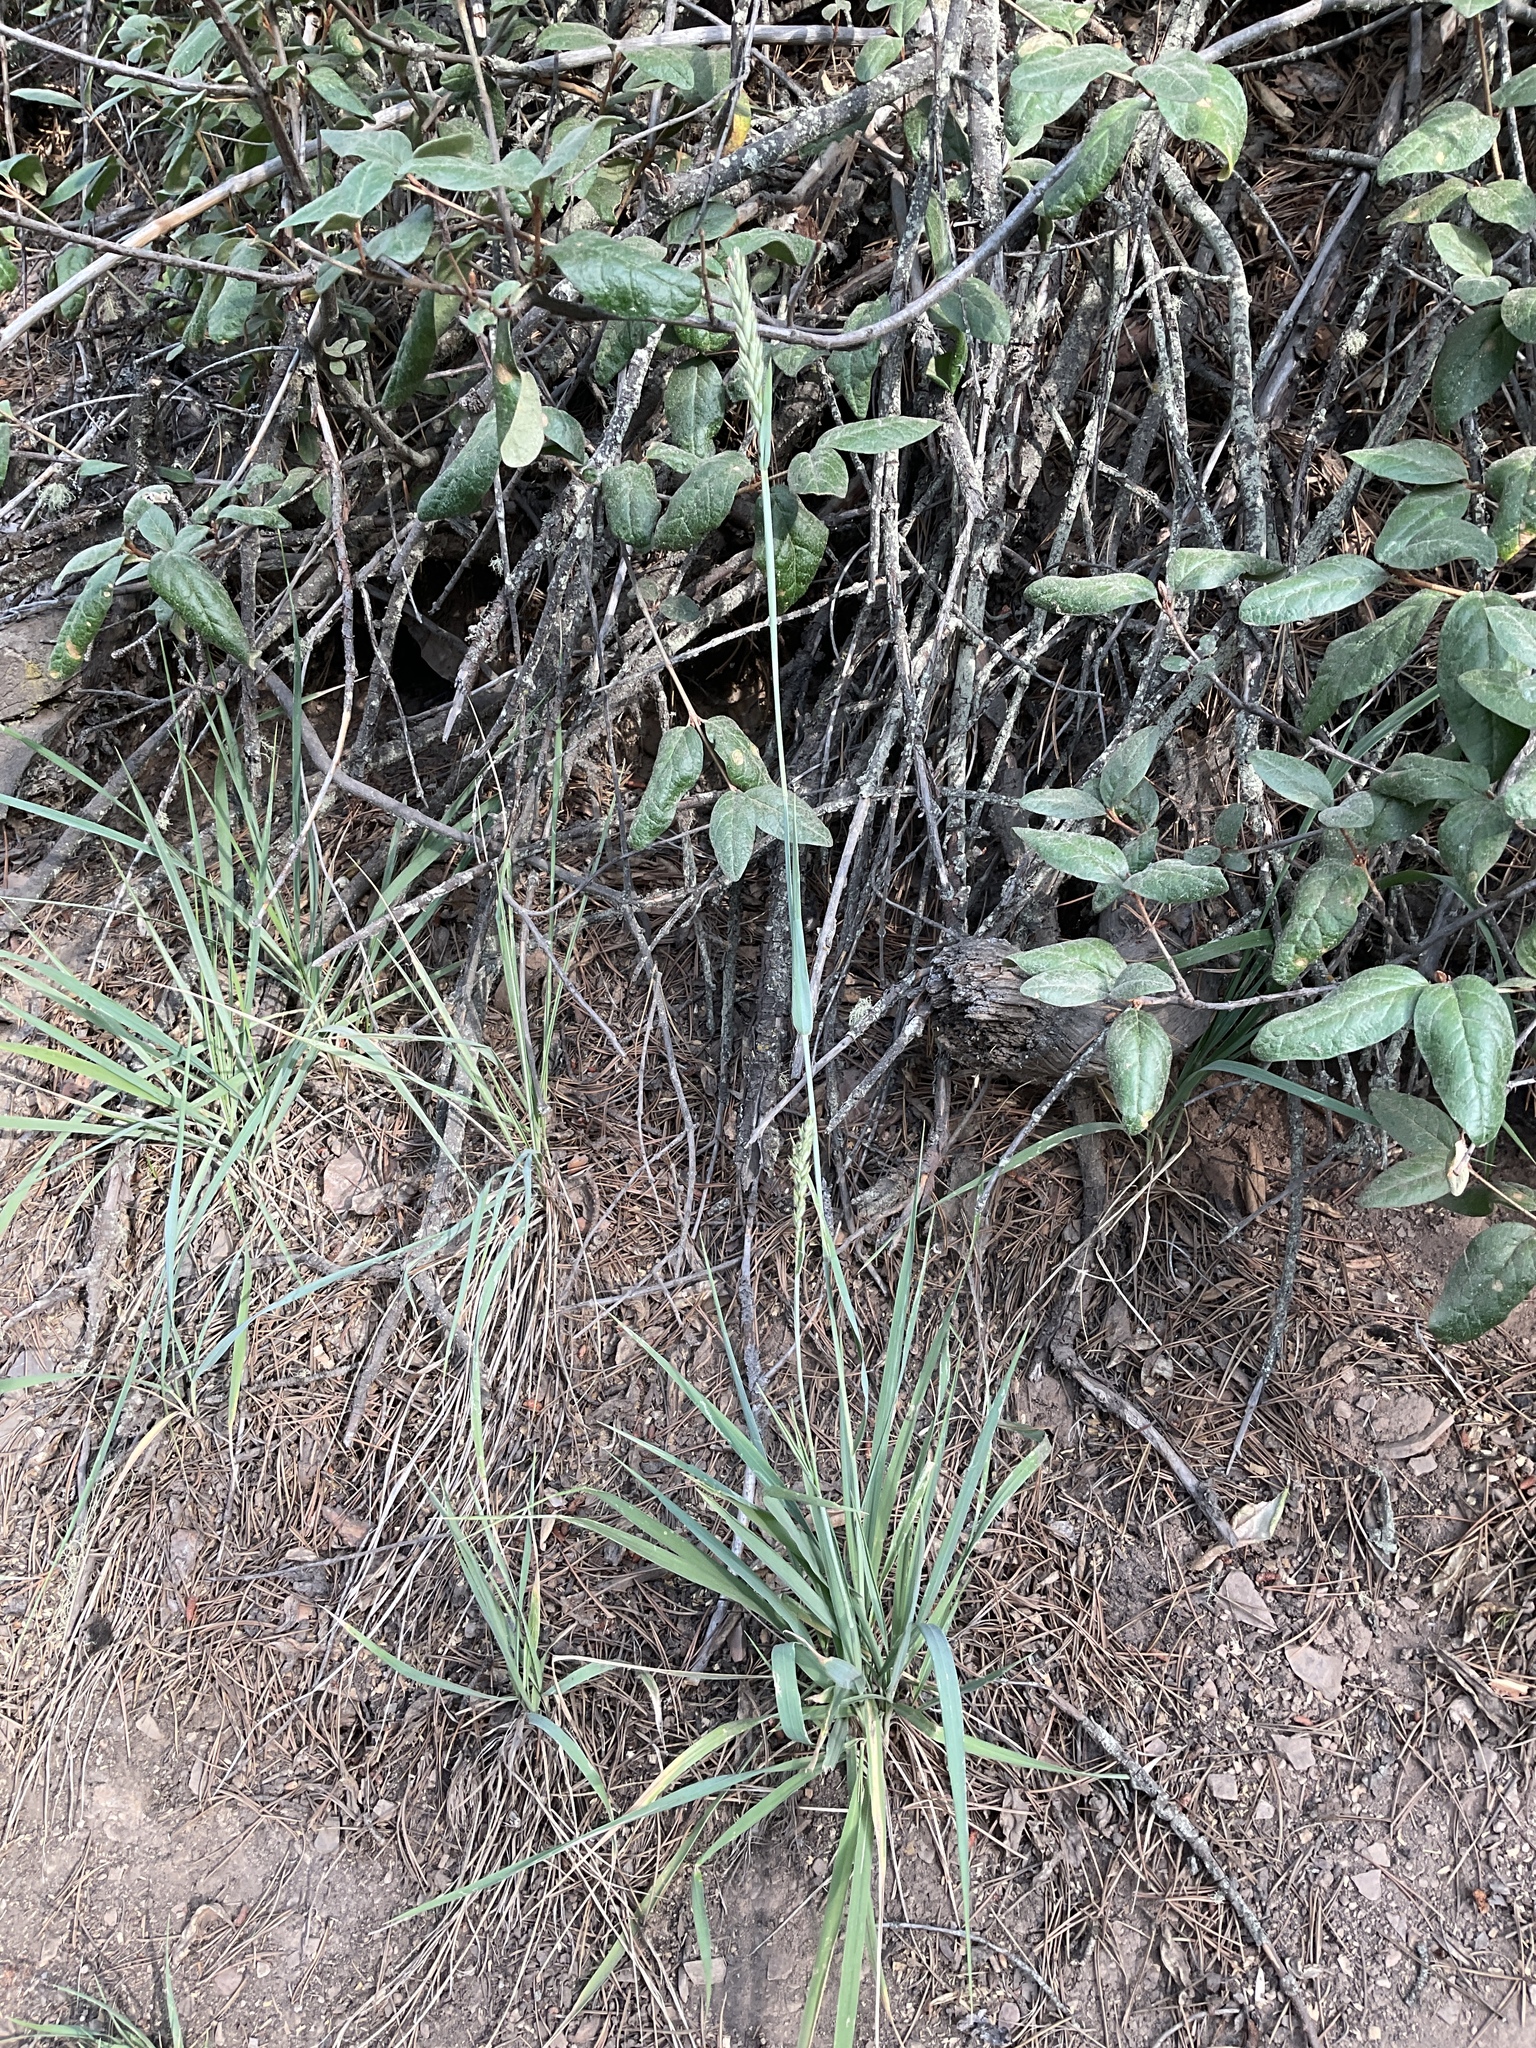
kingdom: Plantae
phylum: Tracheophyta
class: Liliopsida
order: Poales
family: Poaceae
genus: Leymus
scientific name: Leymus innovatus
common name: Boreal wild rye
